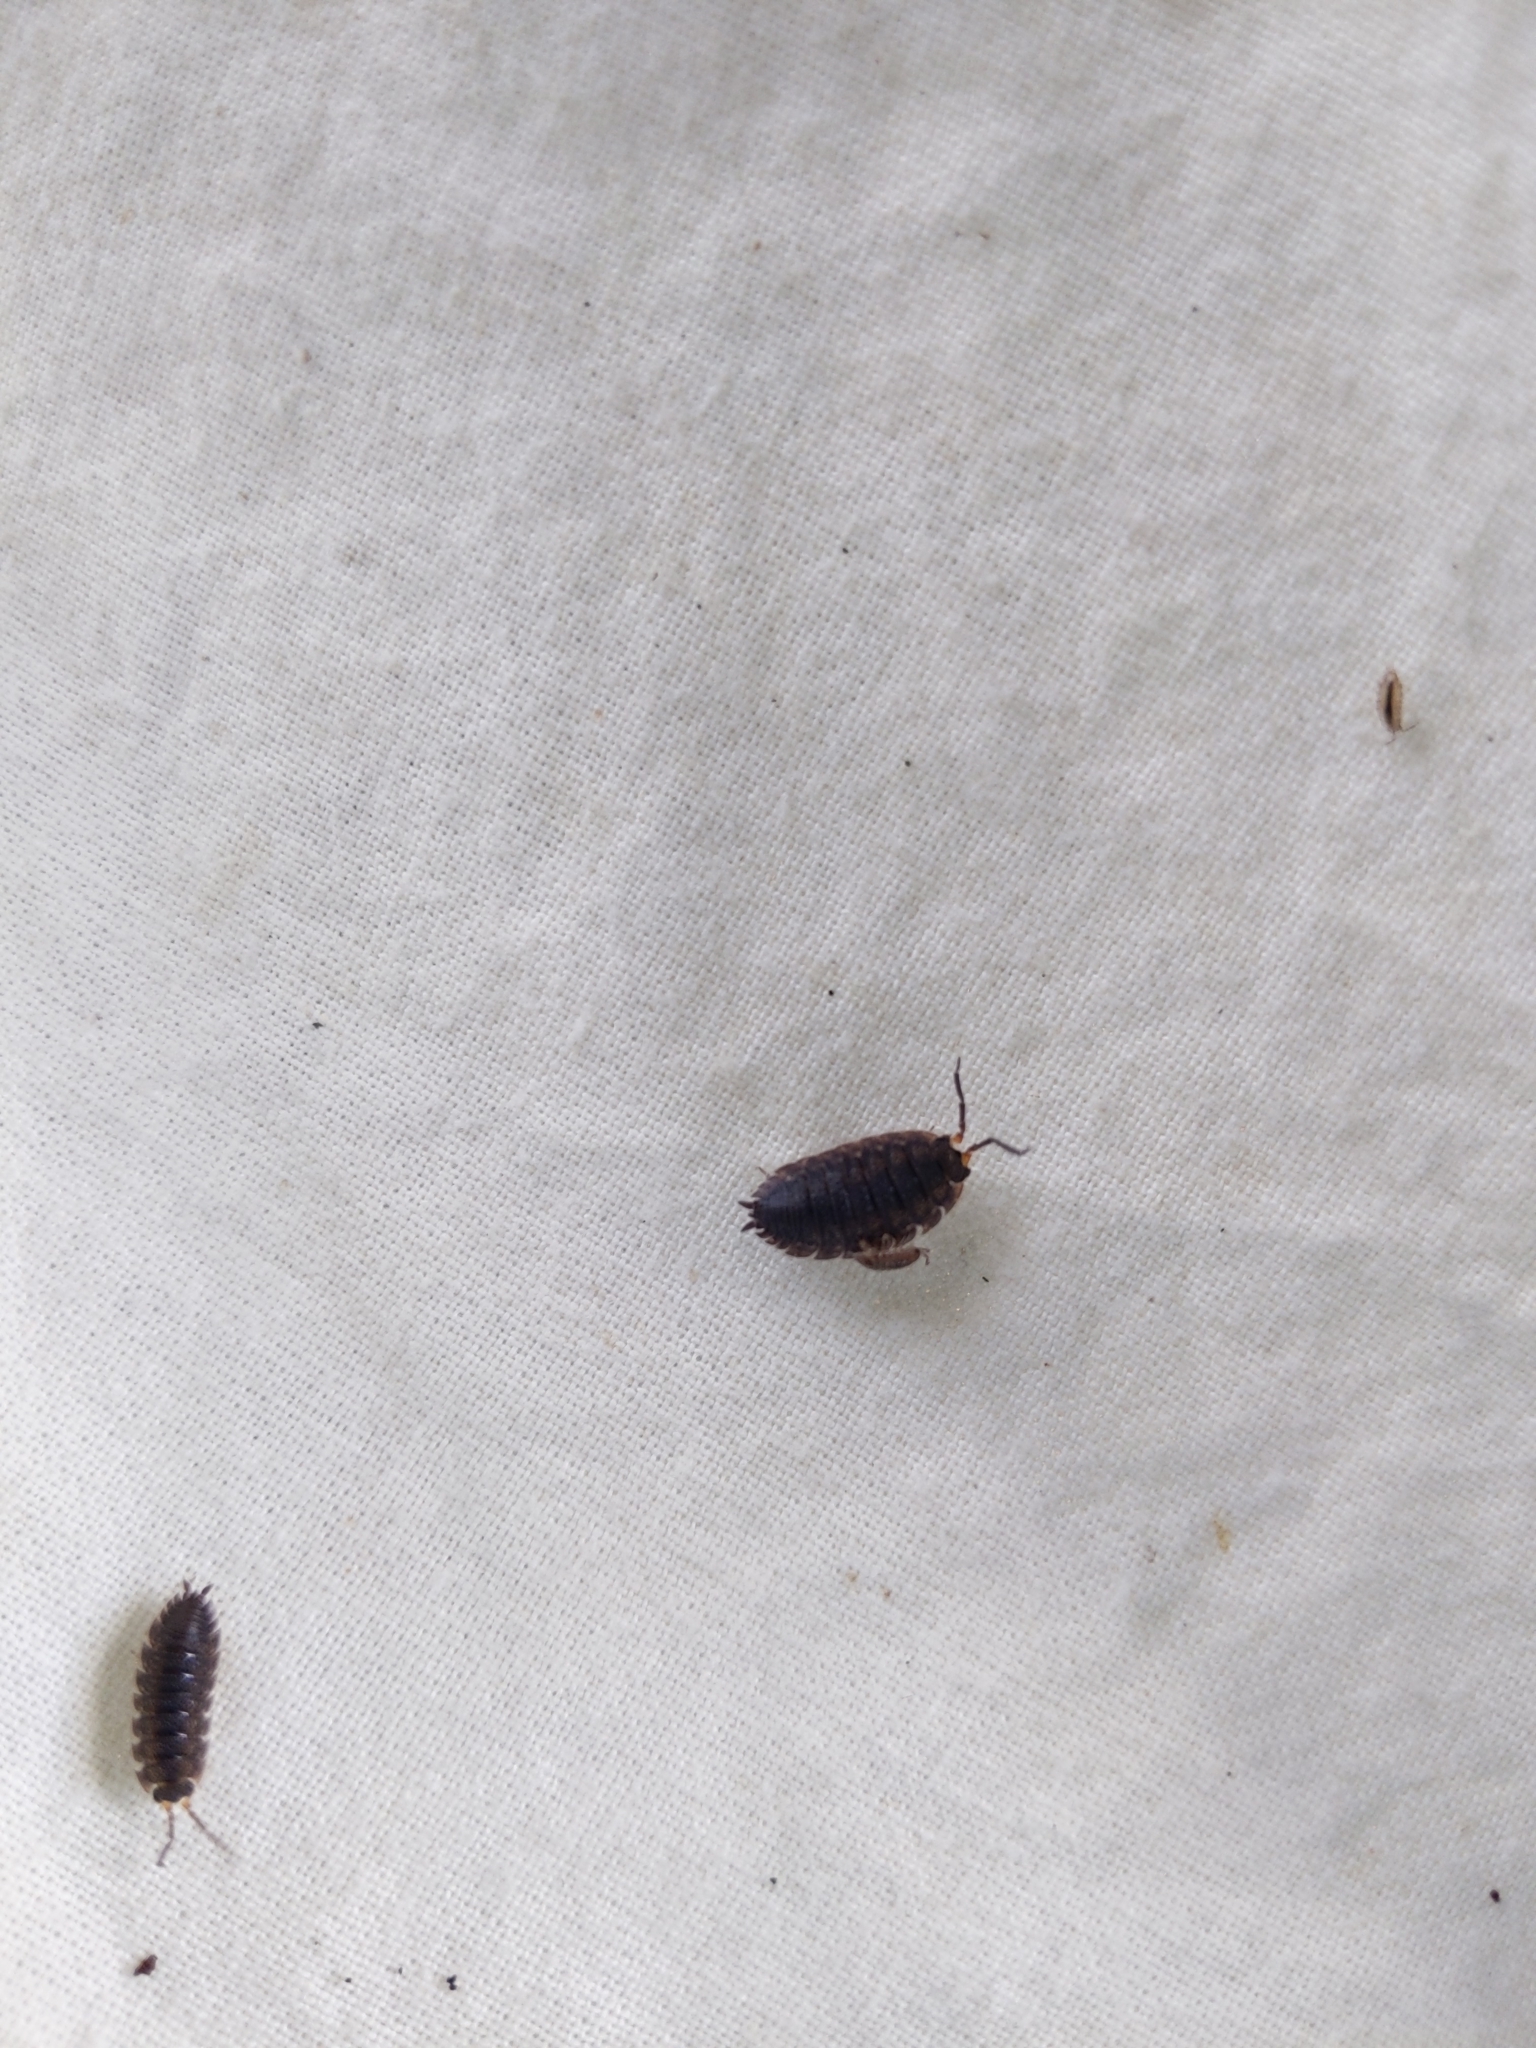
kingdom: Animalia
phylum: Arthropoda
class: Malacostraca
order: Isopoda
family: Porcellionidae
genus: Porcellio
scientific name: Porcellio scaber
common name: Common rough woodlouse
